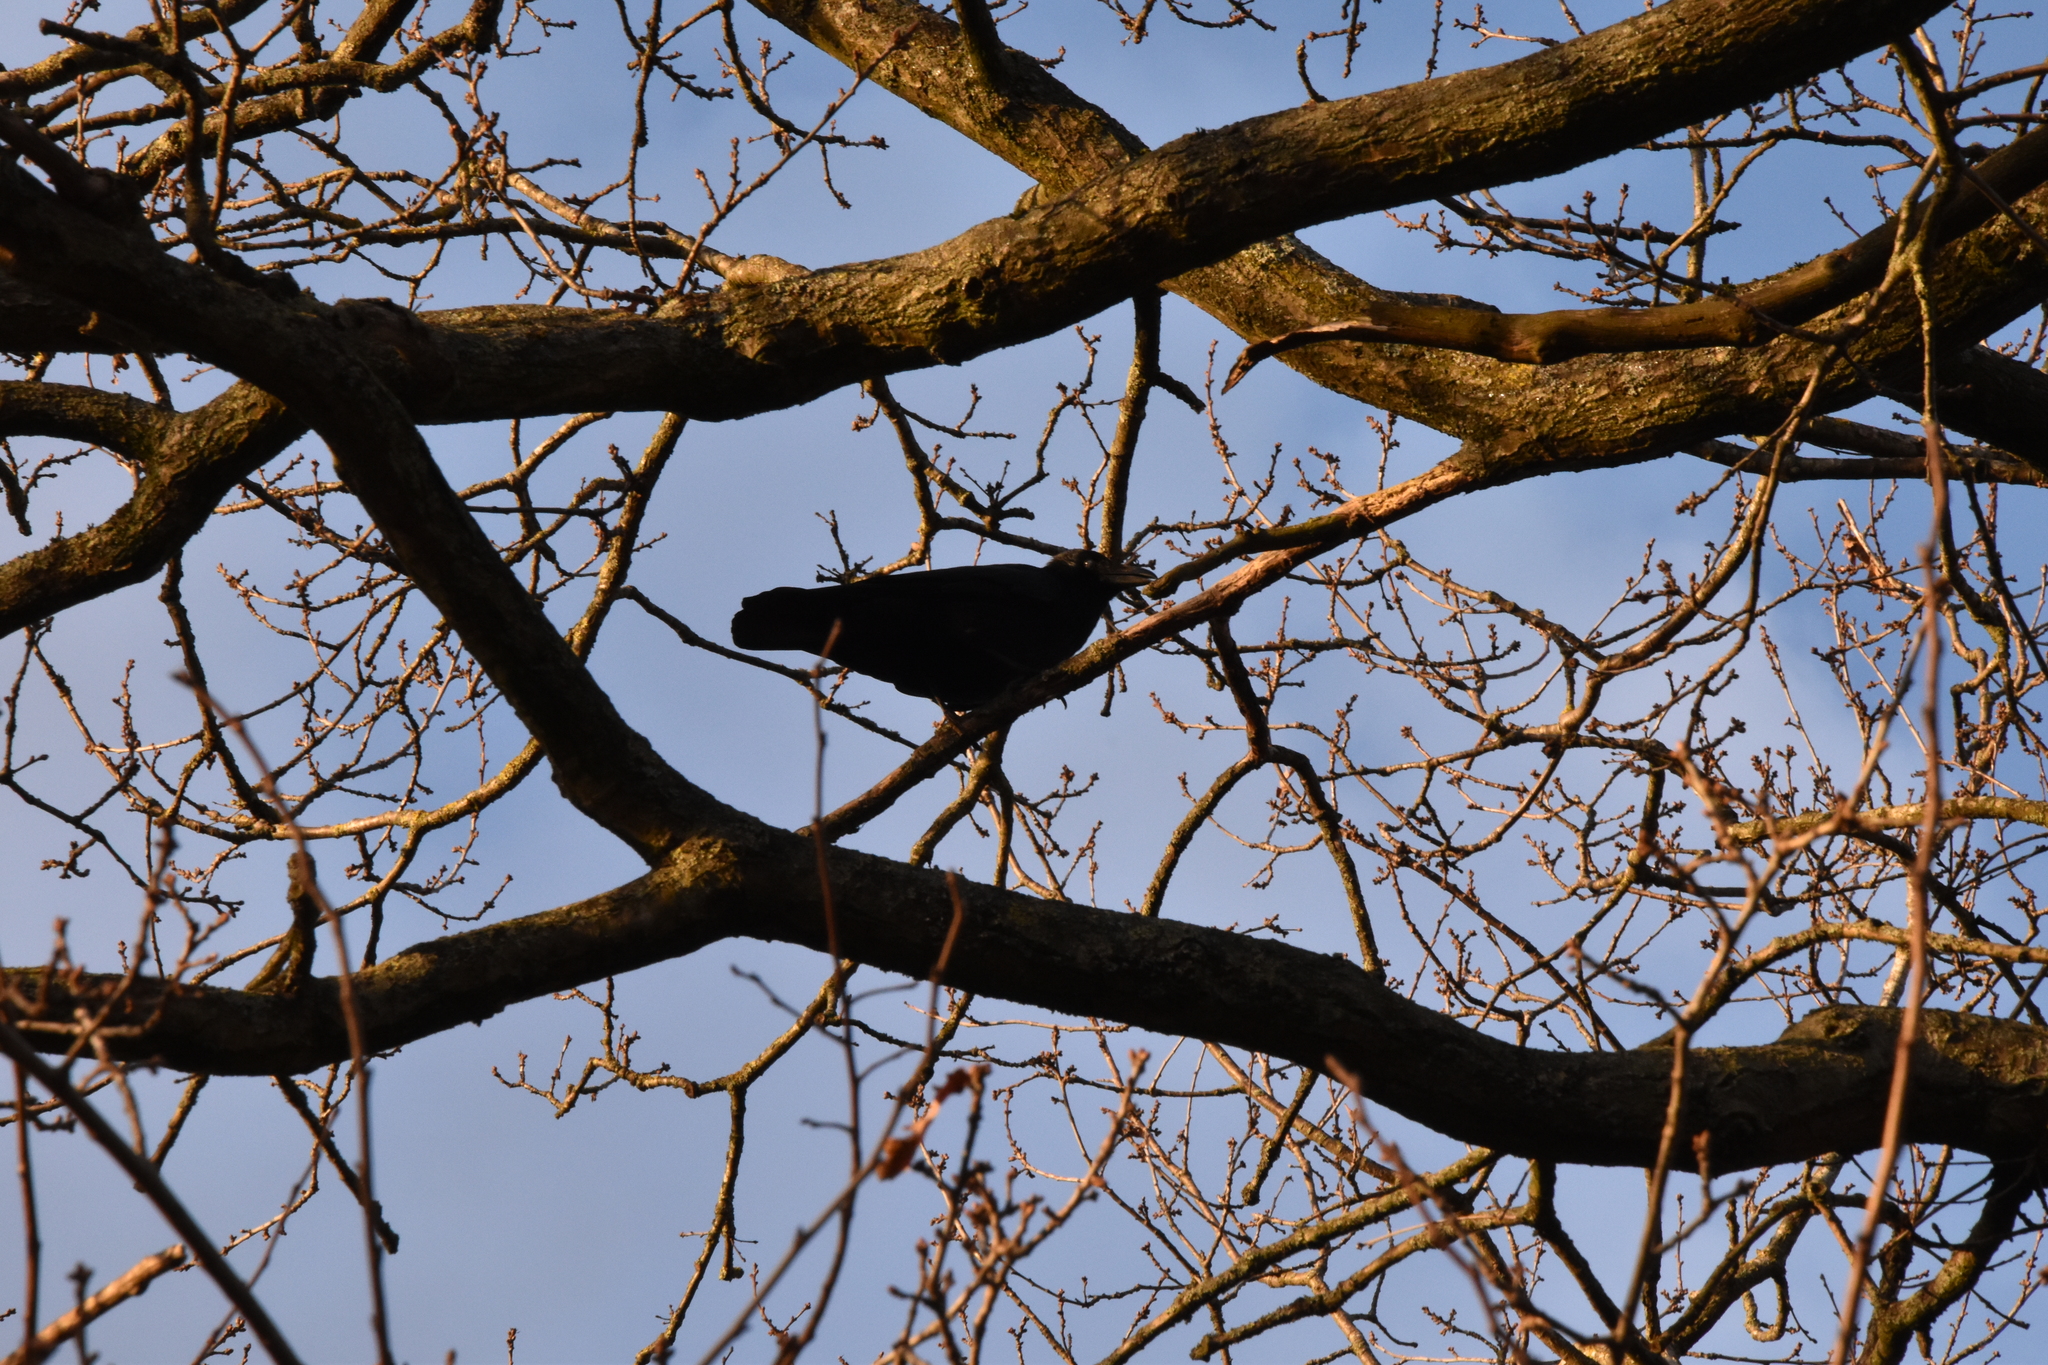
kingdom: Animalia
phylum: Chordata
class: Aves
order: Passeriformes
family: Corvidae
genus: Corvus
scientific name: Corvus corone
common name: Carrion crow
